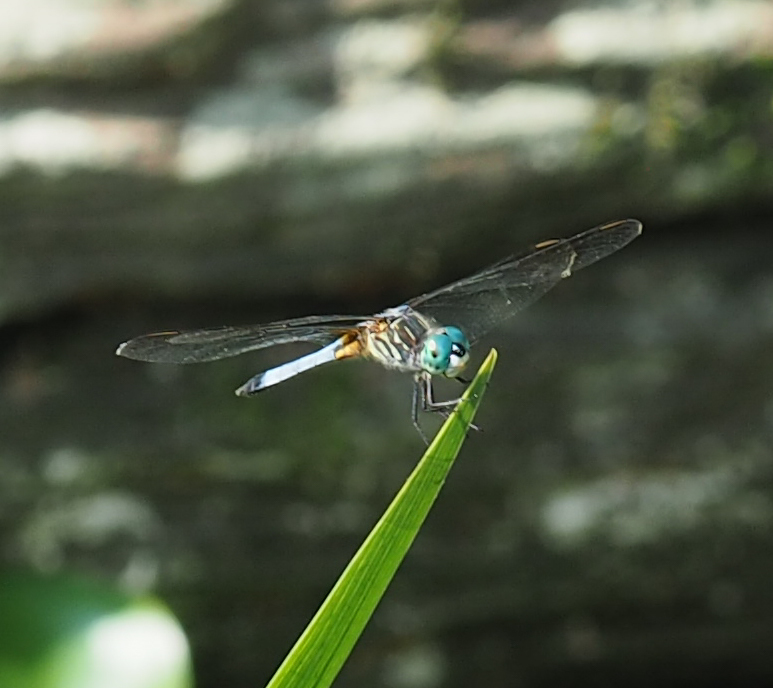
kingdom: Animalia
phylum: Arthropoda
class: Insecta
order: Odonata
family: Libellulidae
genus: Pachydiplax
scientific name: Pachydiplax longipennis
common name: Blue dasher
